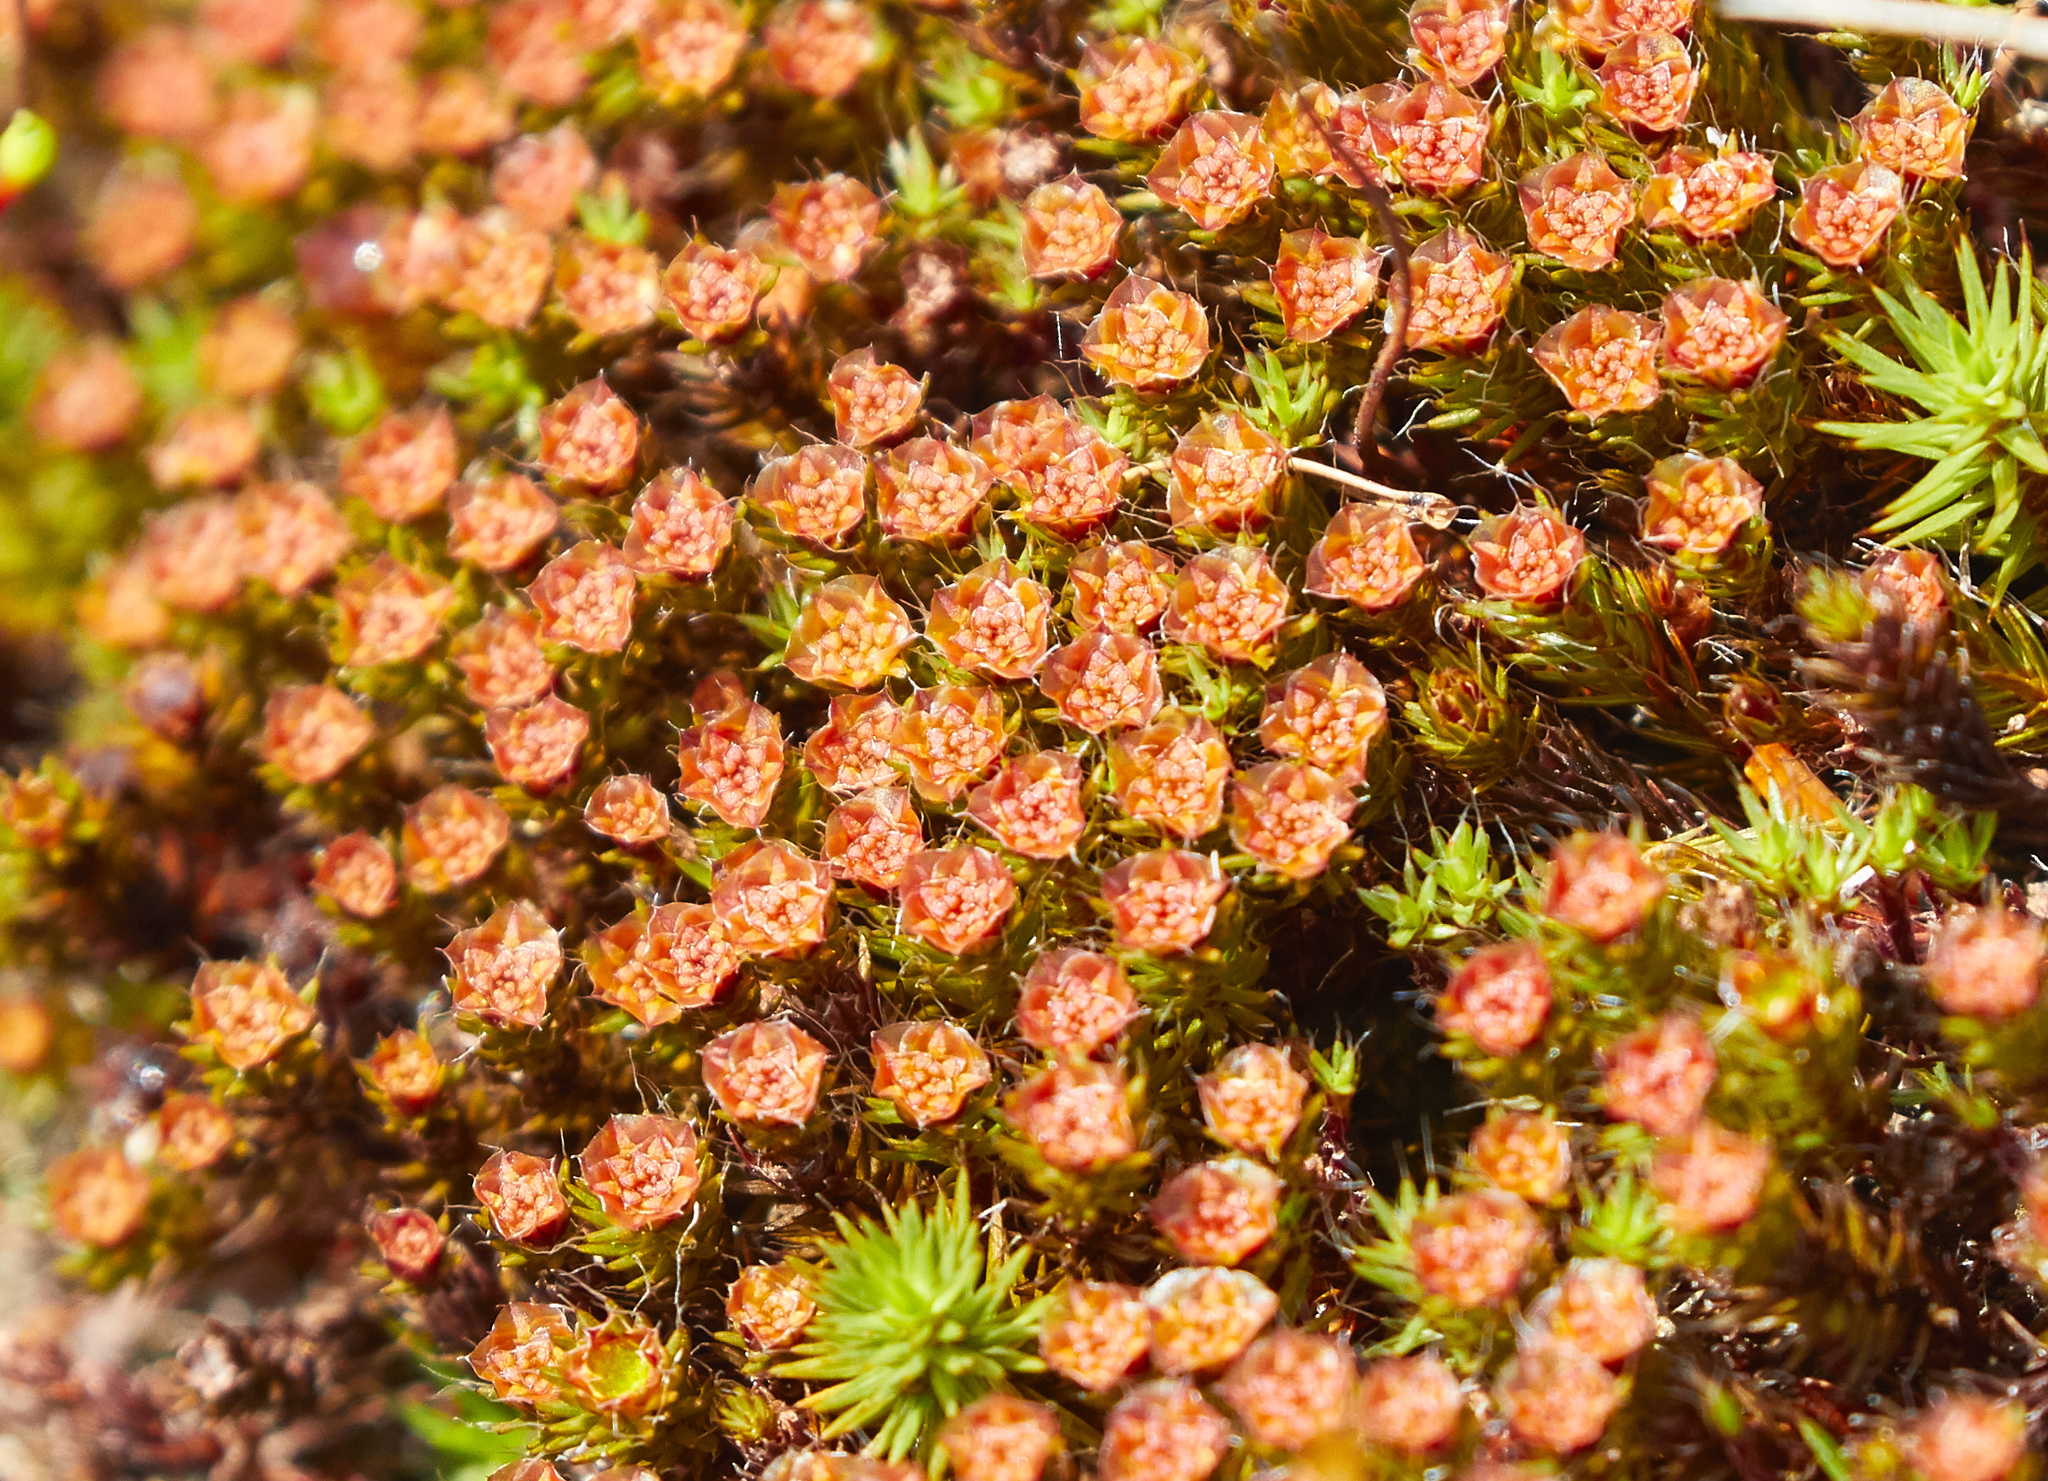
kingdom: Plantae
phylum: Bryophyta
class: Polytrichopsida
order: Polytrichales
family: Polytrichaceae
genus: Polytrichum
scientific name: Polytrichum piliferum
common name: Bristly haircap
